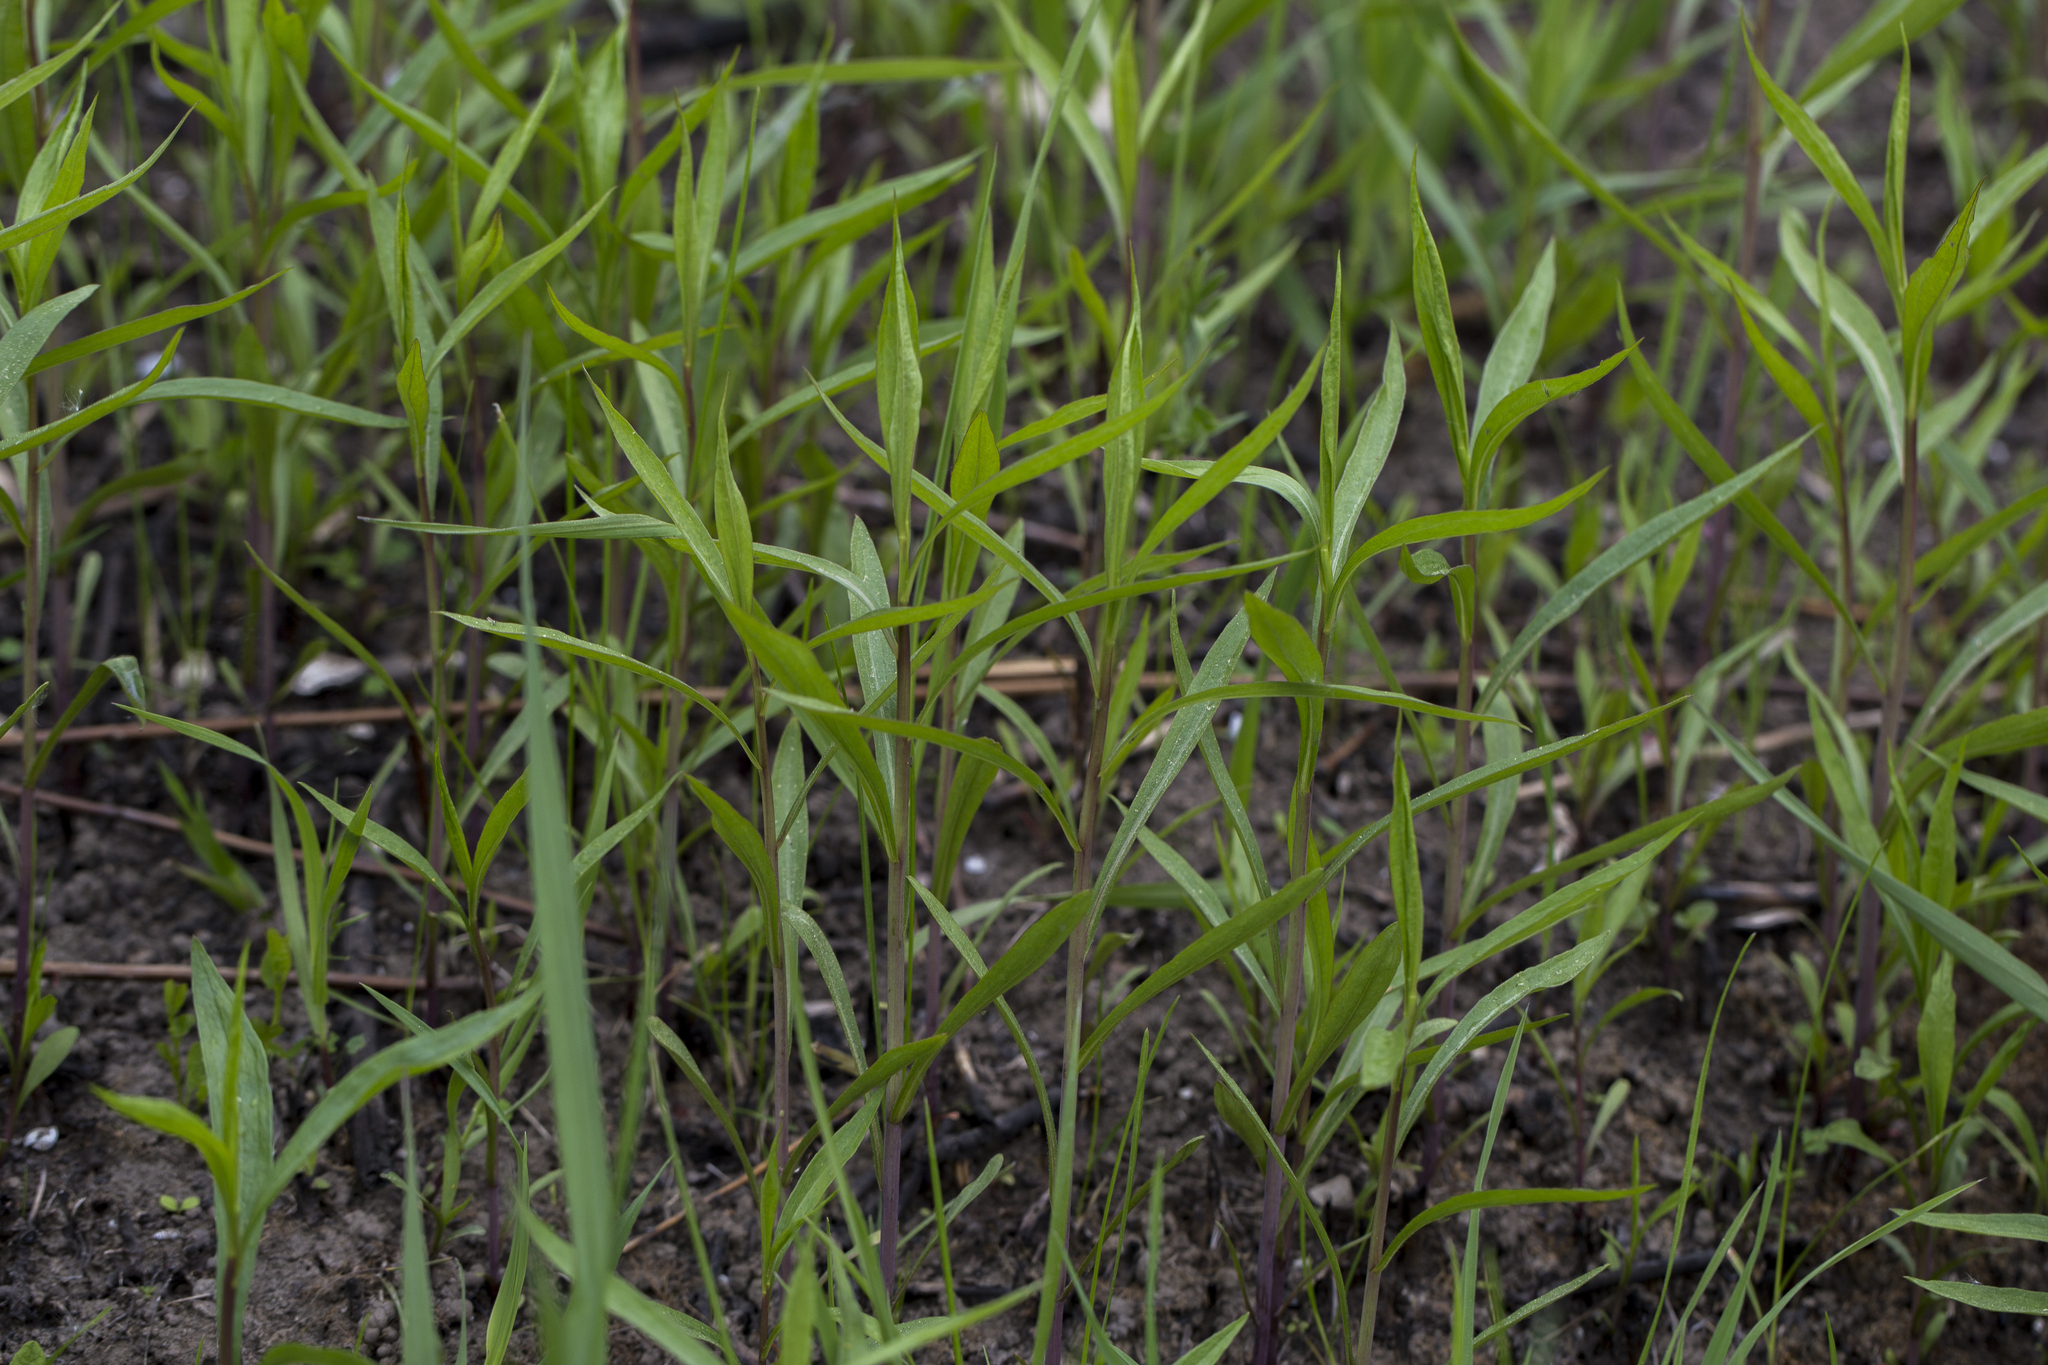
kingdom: Plantae
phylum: Tracheophyta
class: Magnoliopsida
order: Asterales
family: Asteraceae
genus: Solidago
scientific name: Solidago gigantea
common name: Giant goldenrod
